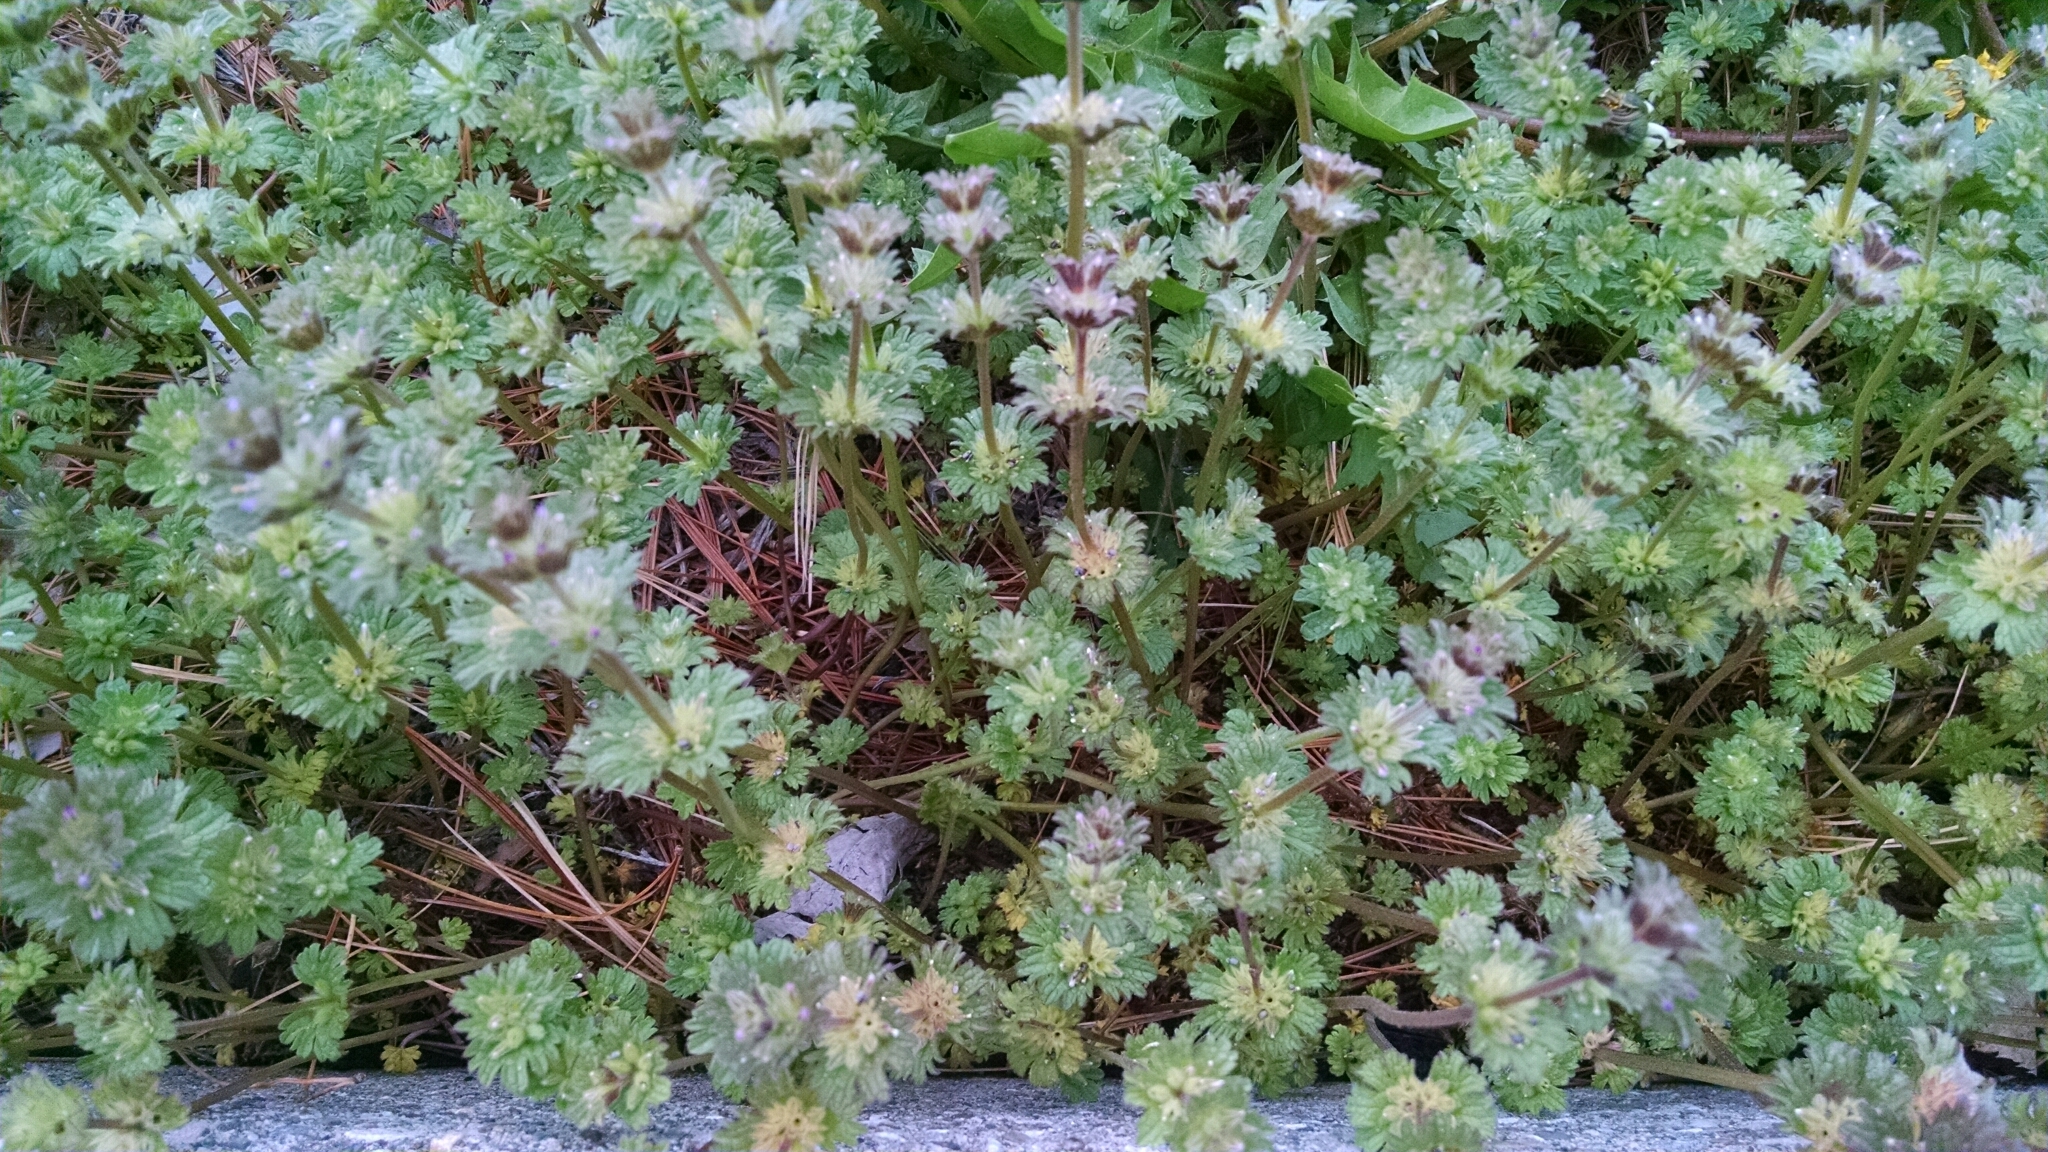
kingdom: Plantae
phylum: Tracheophyta
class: Magnoliopsida
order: Lamiales
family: Lamiaceae
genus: Lamium
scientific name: Lamium amplexicaule
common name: Henbit dead-nettle
